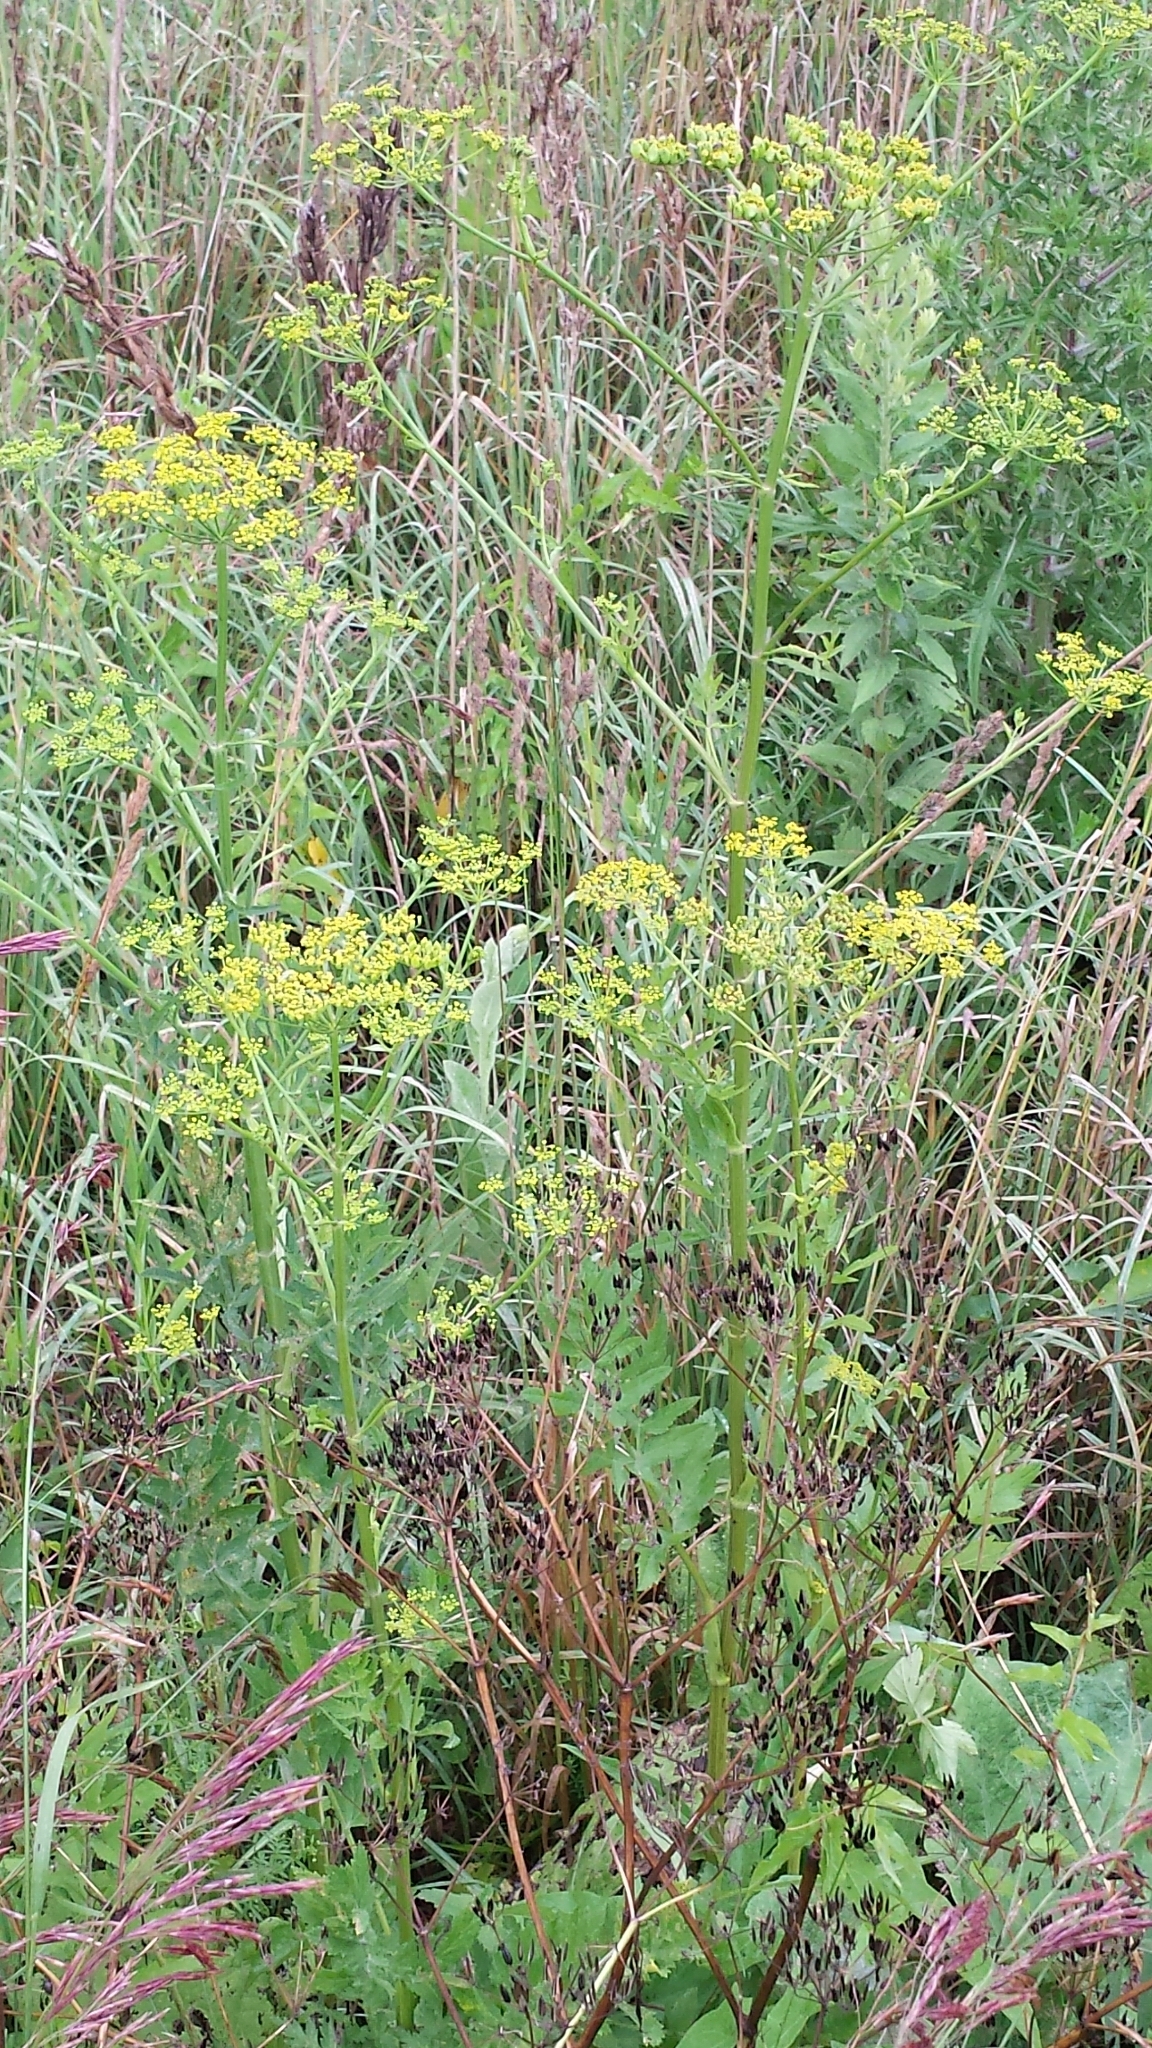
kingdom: Plantae
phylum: Tracheophyta
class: Magnoliopsida
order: Apiales
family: Apiaceae
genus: Pastinaca
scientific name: Pastinaca sativa
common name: Wild parsnip
